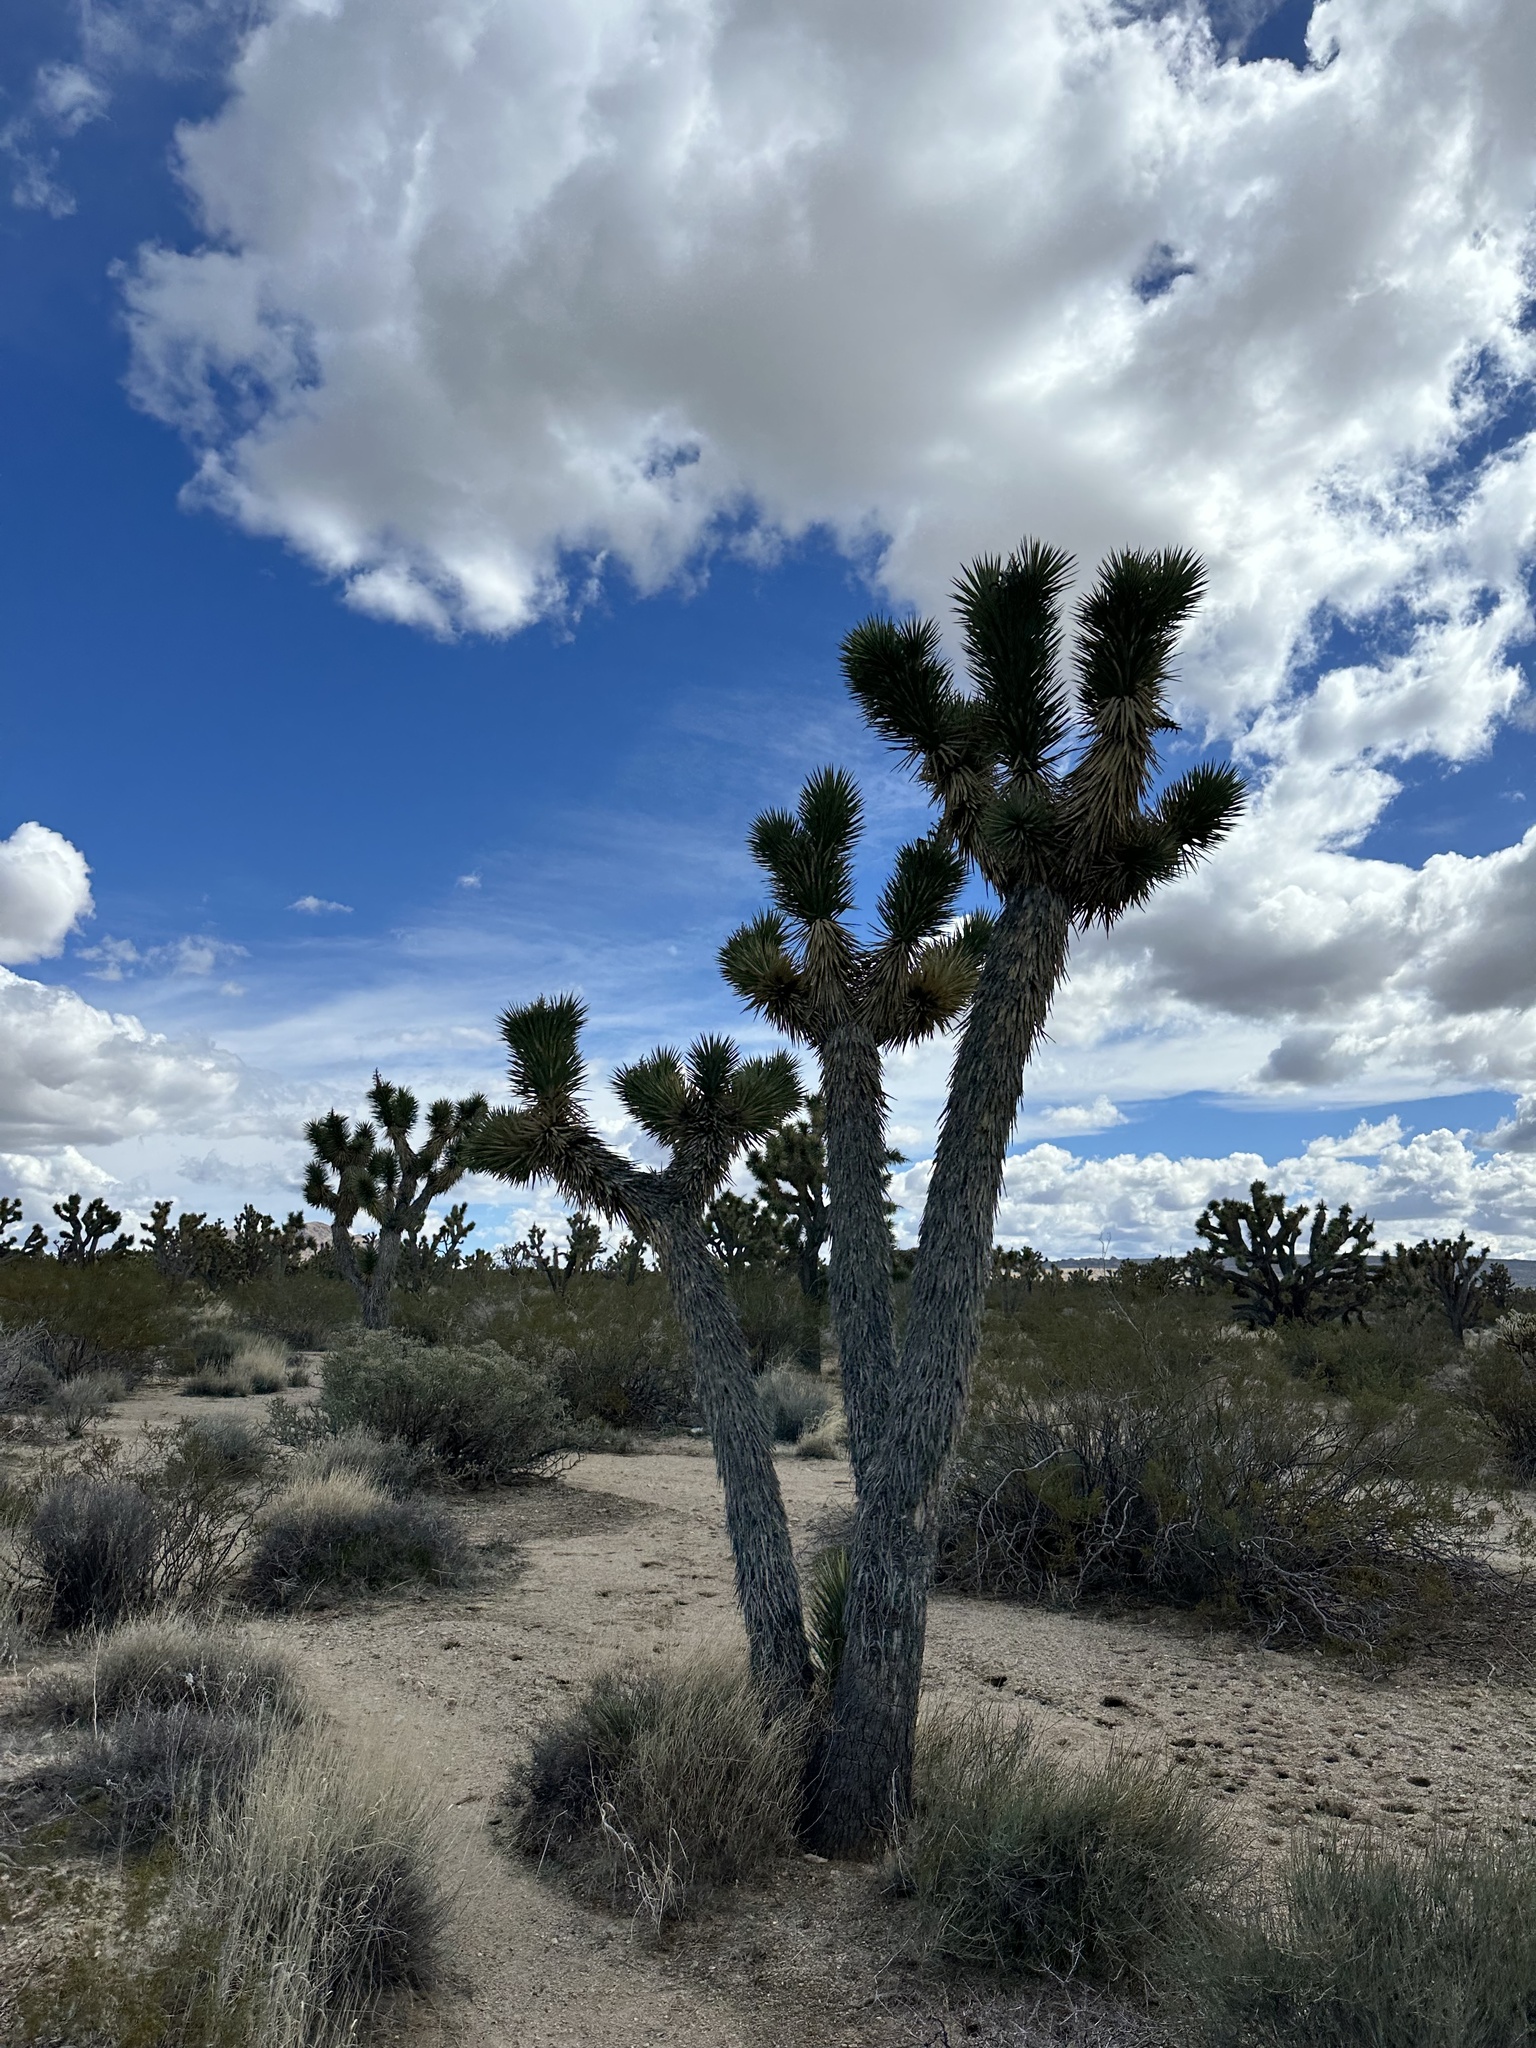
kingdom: Plantae
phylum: Tracheophyta
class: Liliopsida
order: Asparagales
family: Asparagaceae
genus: Yucca
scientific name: Yucca brevifolia
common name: Joshua tree
